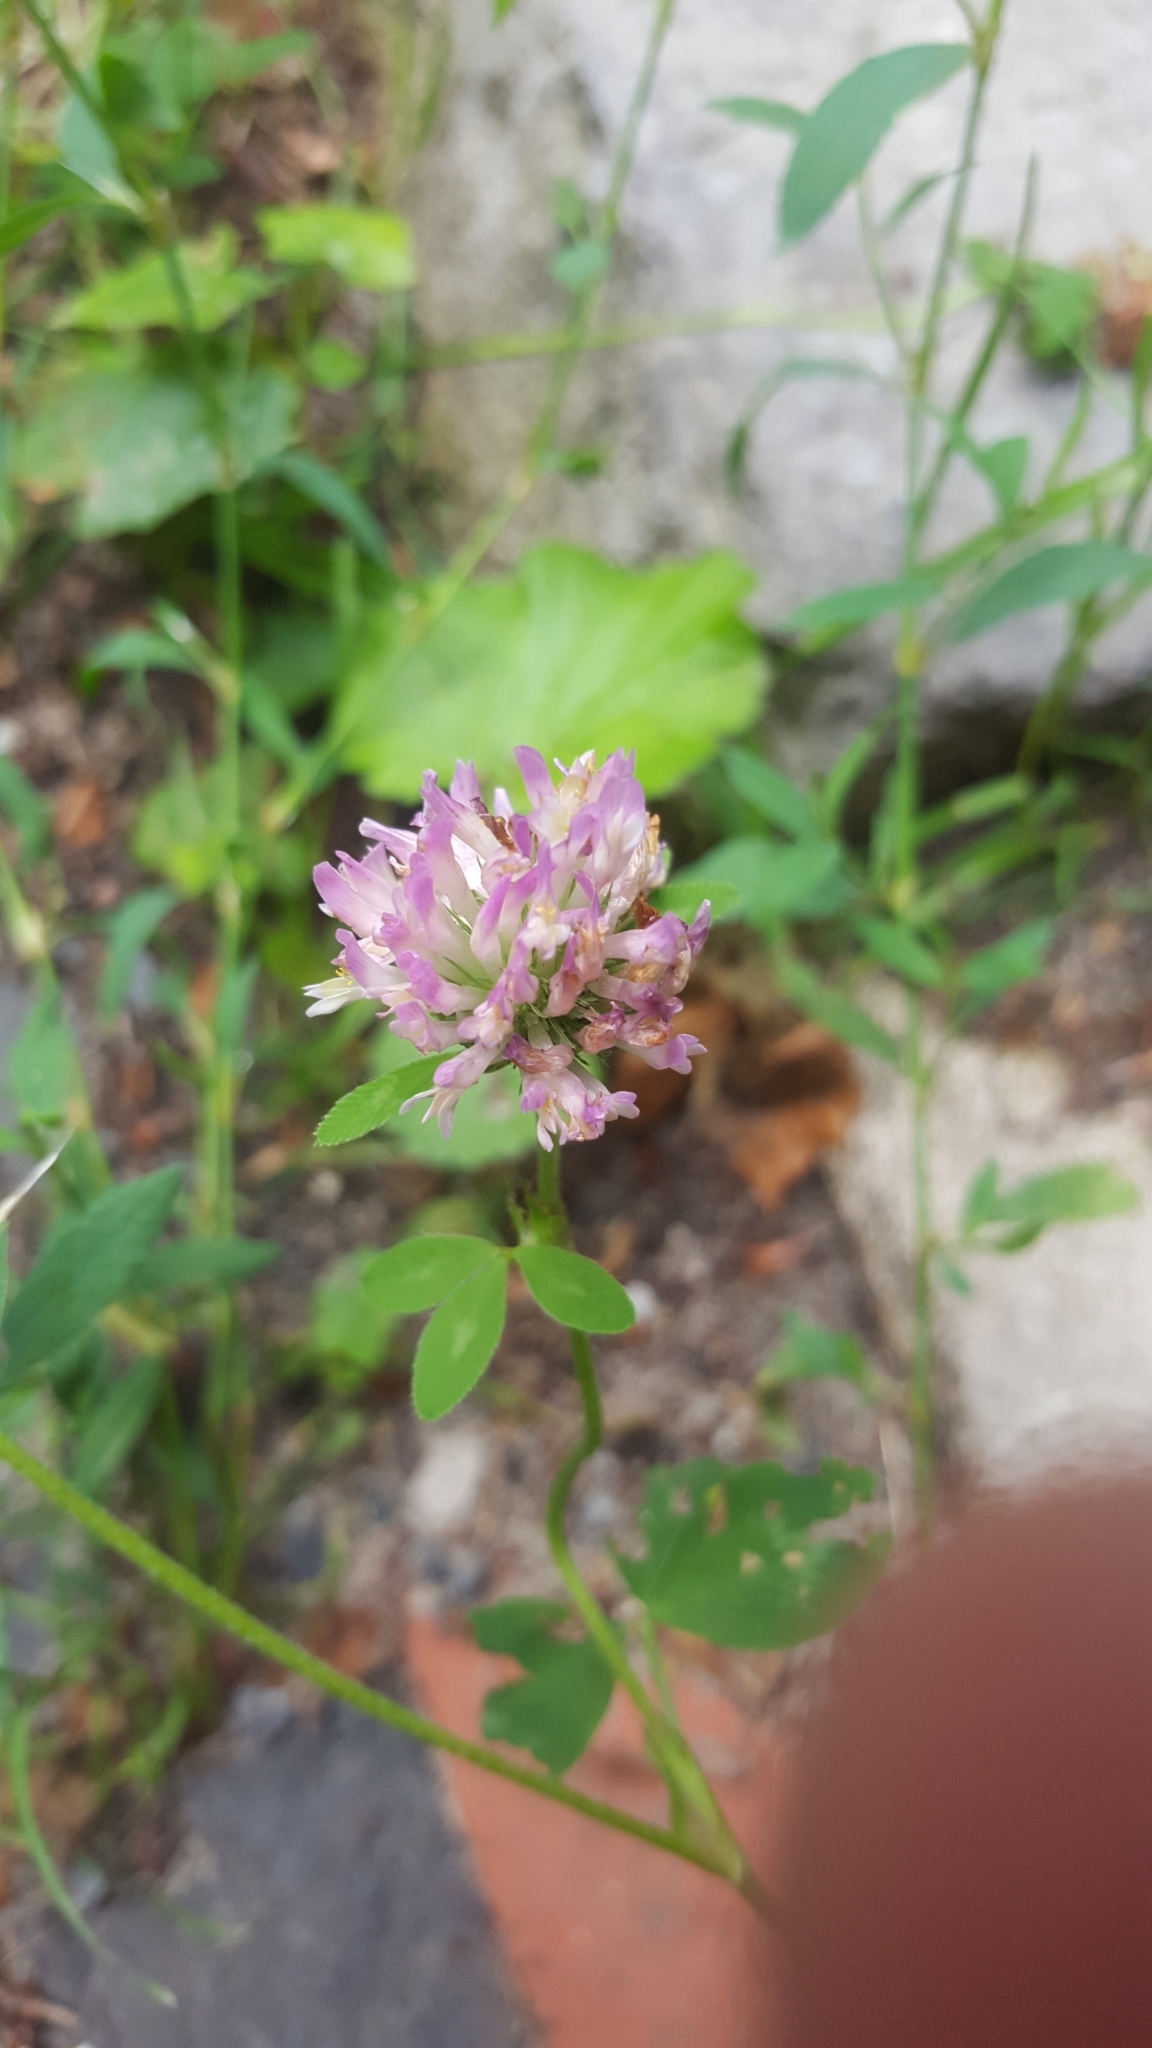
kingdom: Plantae
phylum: Tracheophyta
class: Magnoliopsida
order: Fabales
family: Fabaceae
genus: Trifolium
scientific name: Trifolium pratense
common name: Red clover
